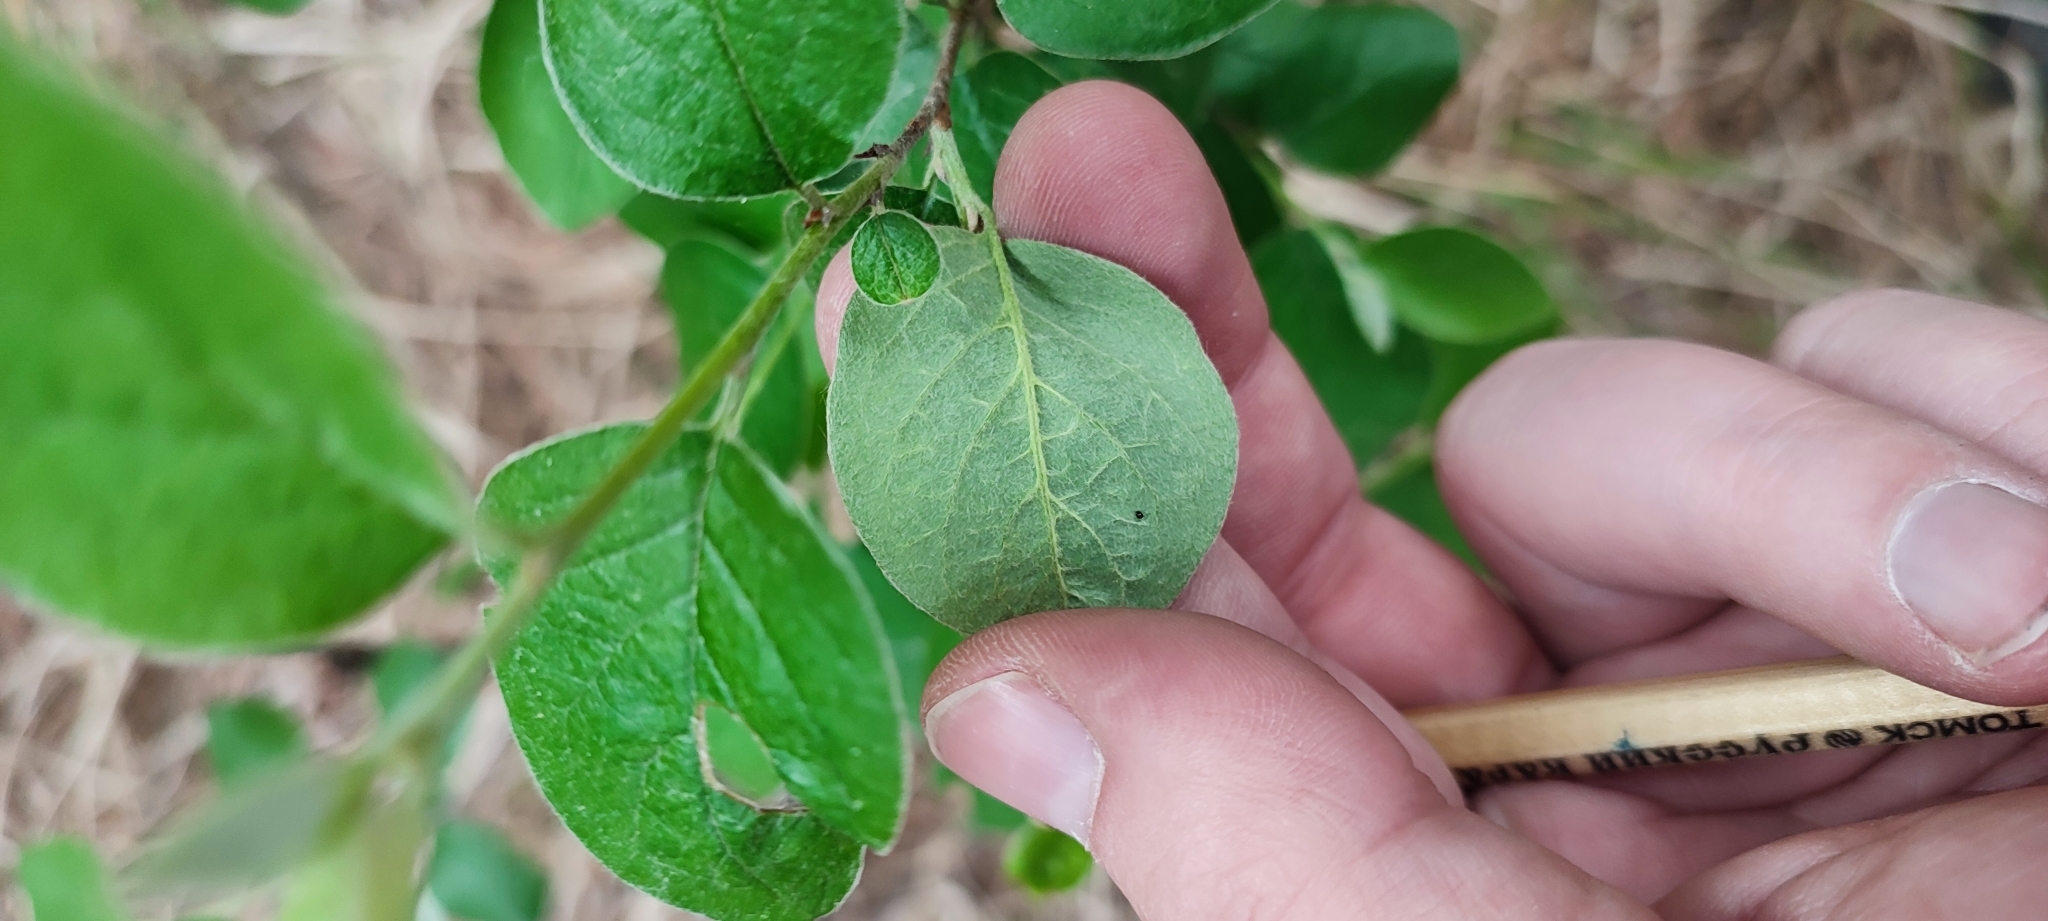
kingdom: Plantae
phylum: Tracheophyta
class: Magnoliopsida
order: Rosales
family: Rosaceae
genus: Cotoneaster
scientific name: Cotoneaster melanocarpus
